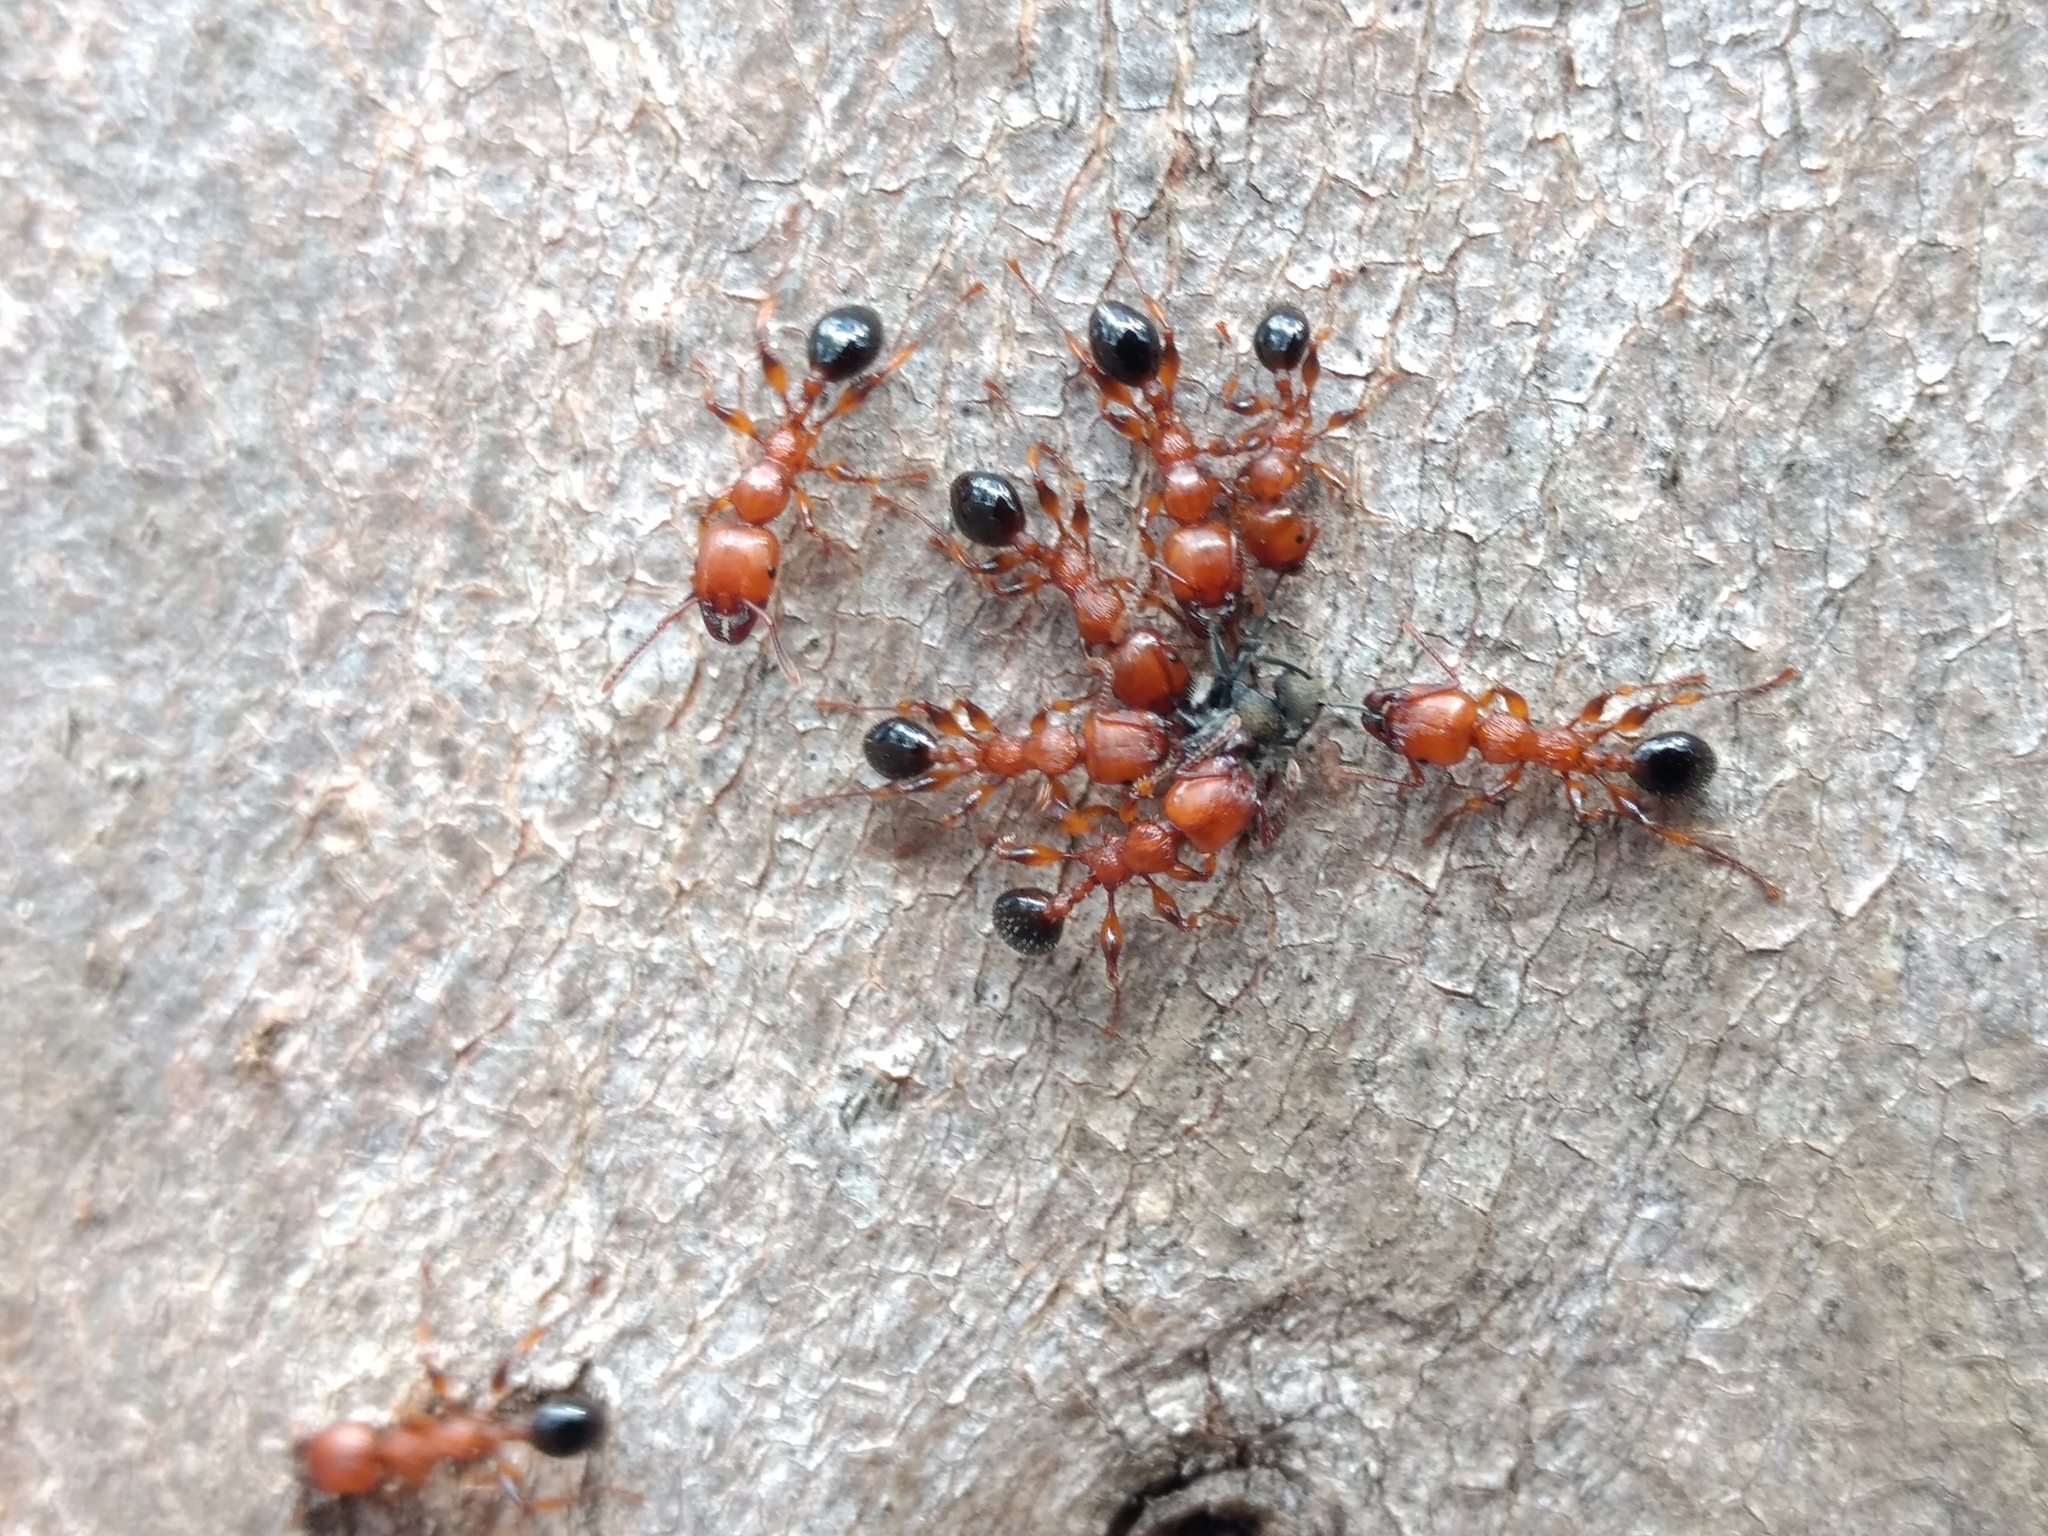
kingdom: Animalia
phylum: Arthropoda
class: Insecta
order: Hymenoptera
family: Formicidae
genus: Podomyrma
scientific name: Podomyrma gratiosa
